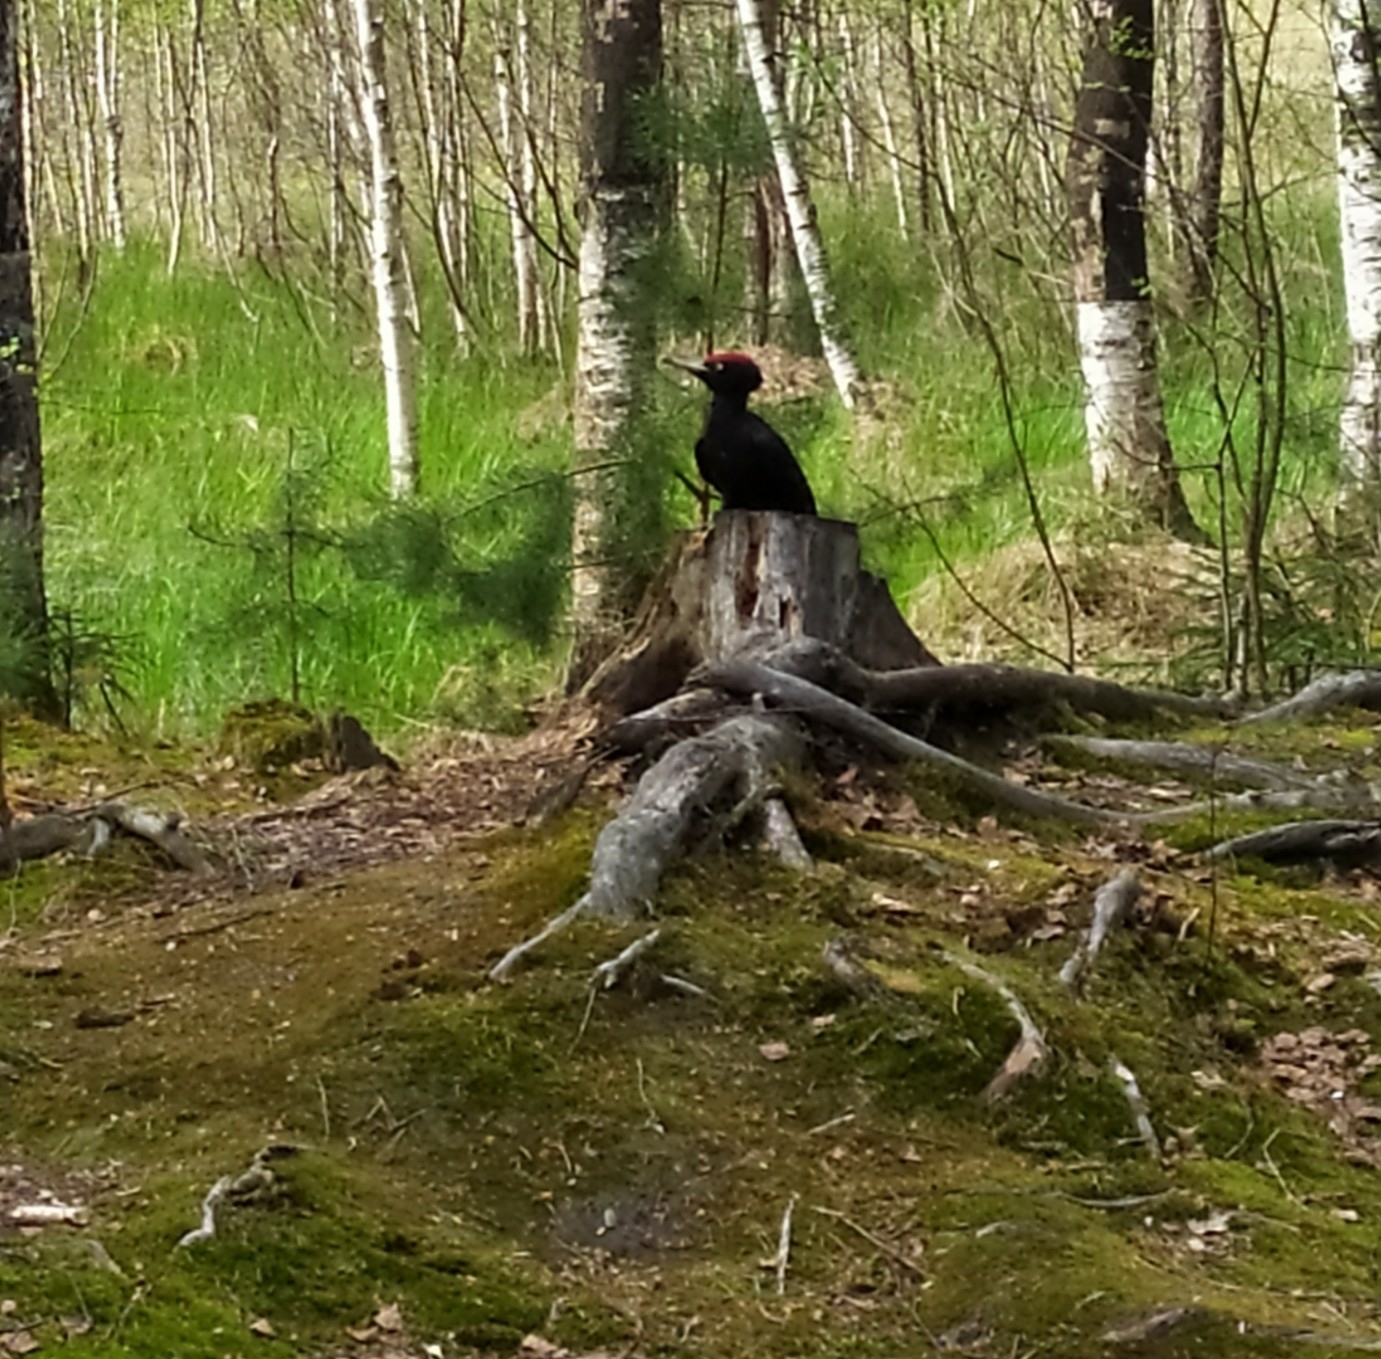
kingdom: Animalia
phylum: Chordata
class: Aves
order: Piciformes
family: Picidae
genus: Dryocopus
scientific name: Dryocopus martius
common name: Black woodpecker
